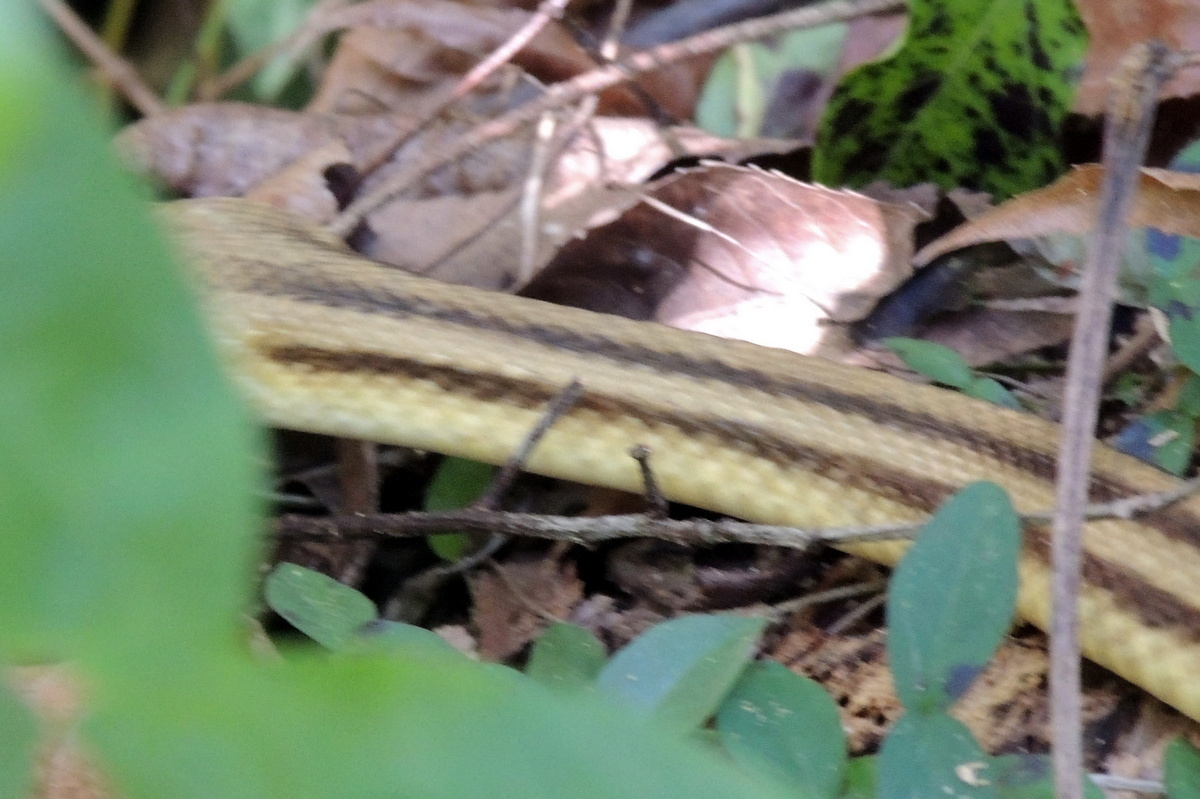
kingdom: Animalia
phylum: Chordata
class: Squamata
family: Colubridae
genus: Pantherophis
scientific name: Pantherophis alleghaniensis
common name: Eastern rat snake
